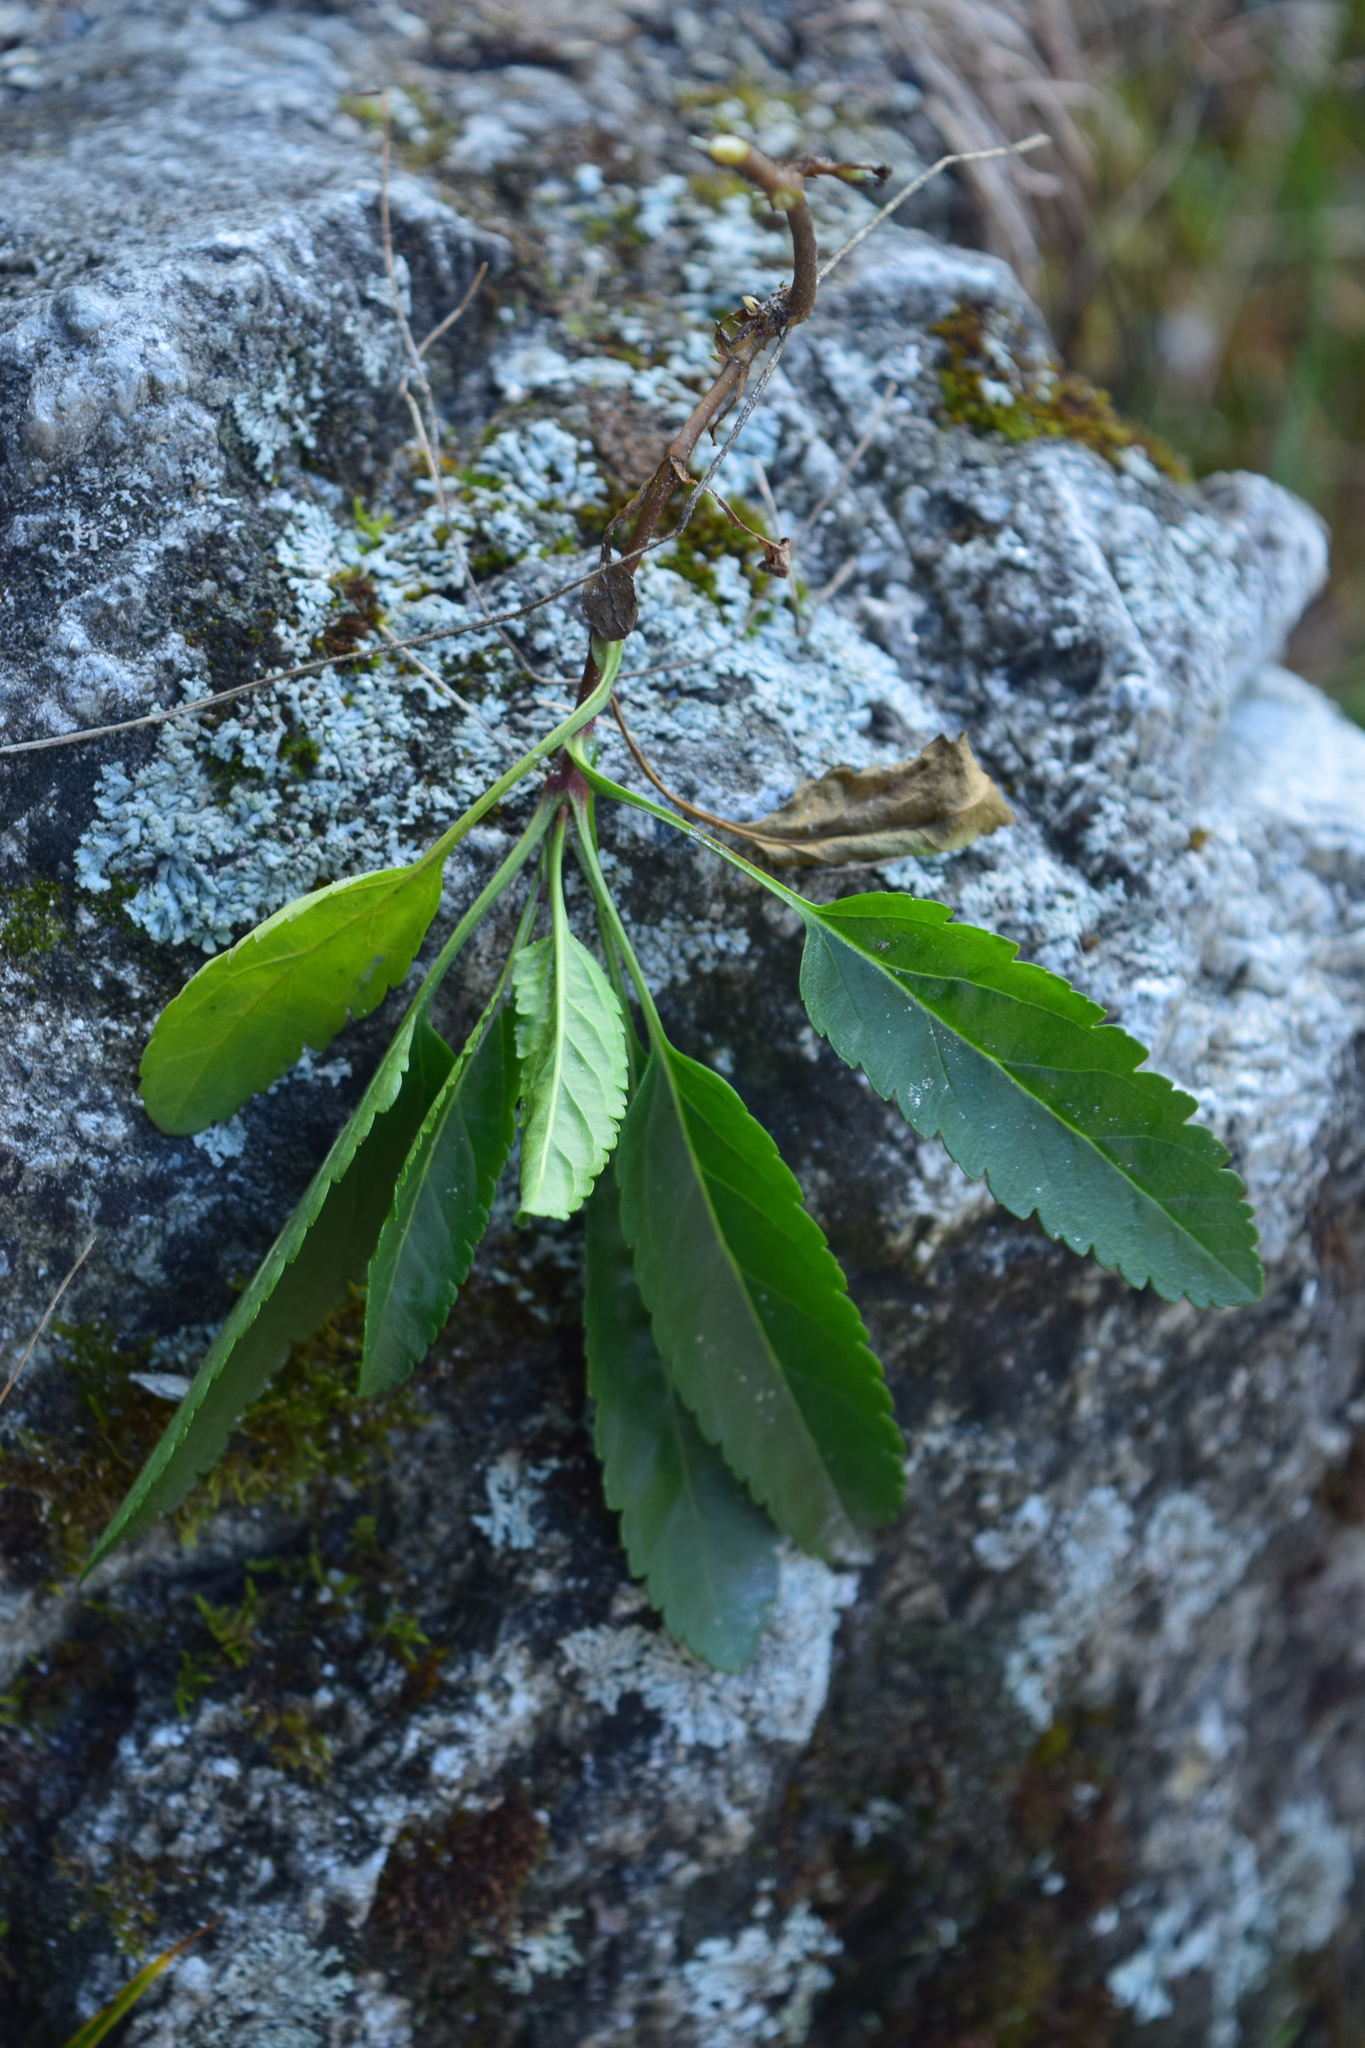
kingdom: Plantae
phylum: Tracheophyta
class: Magnoliopsida
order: Lamiales
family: Plantaginaceae
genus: Veronica
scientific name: Veronica spicata
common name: Spiked speedwell
